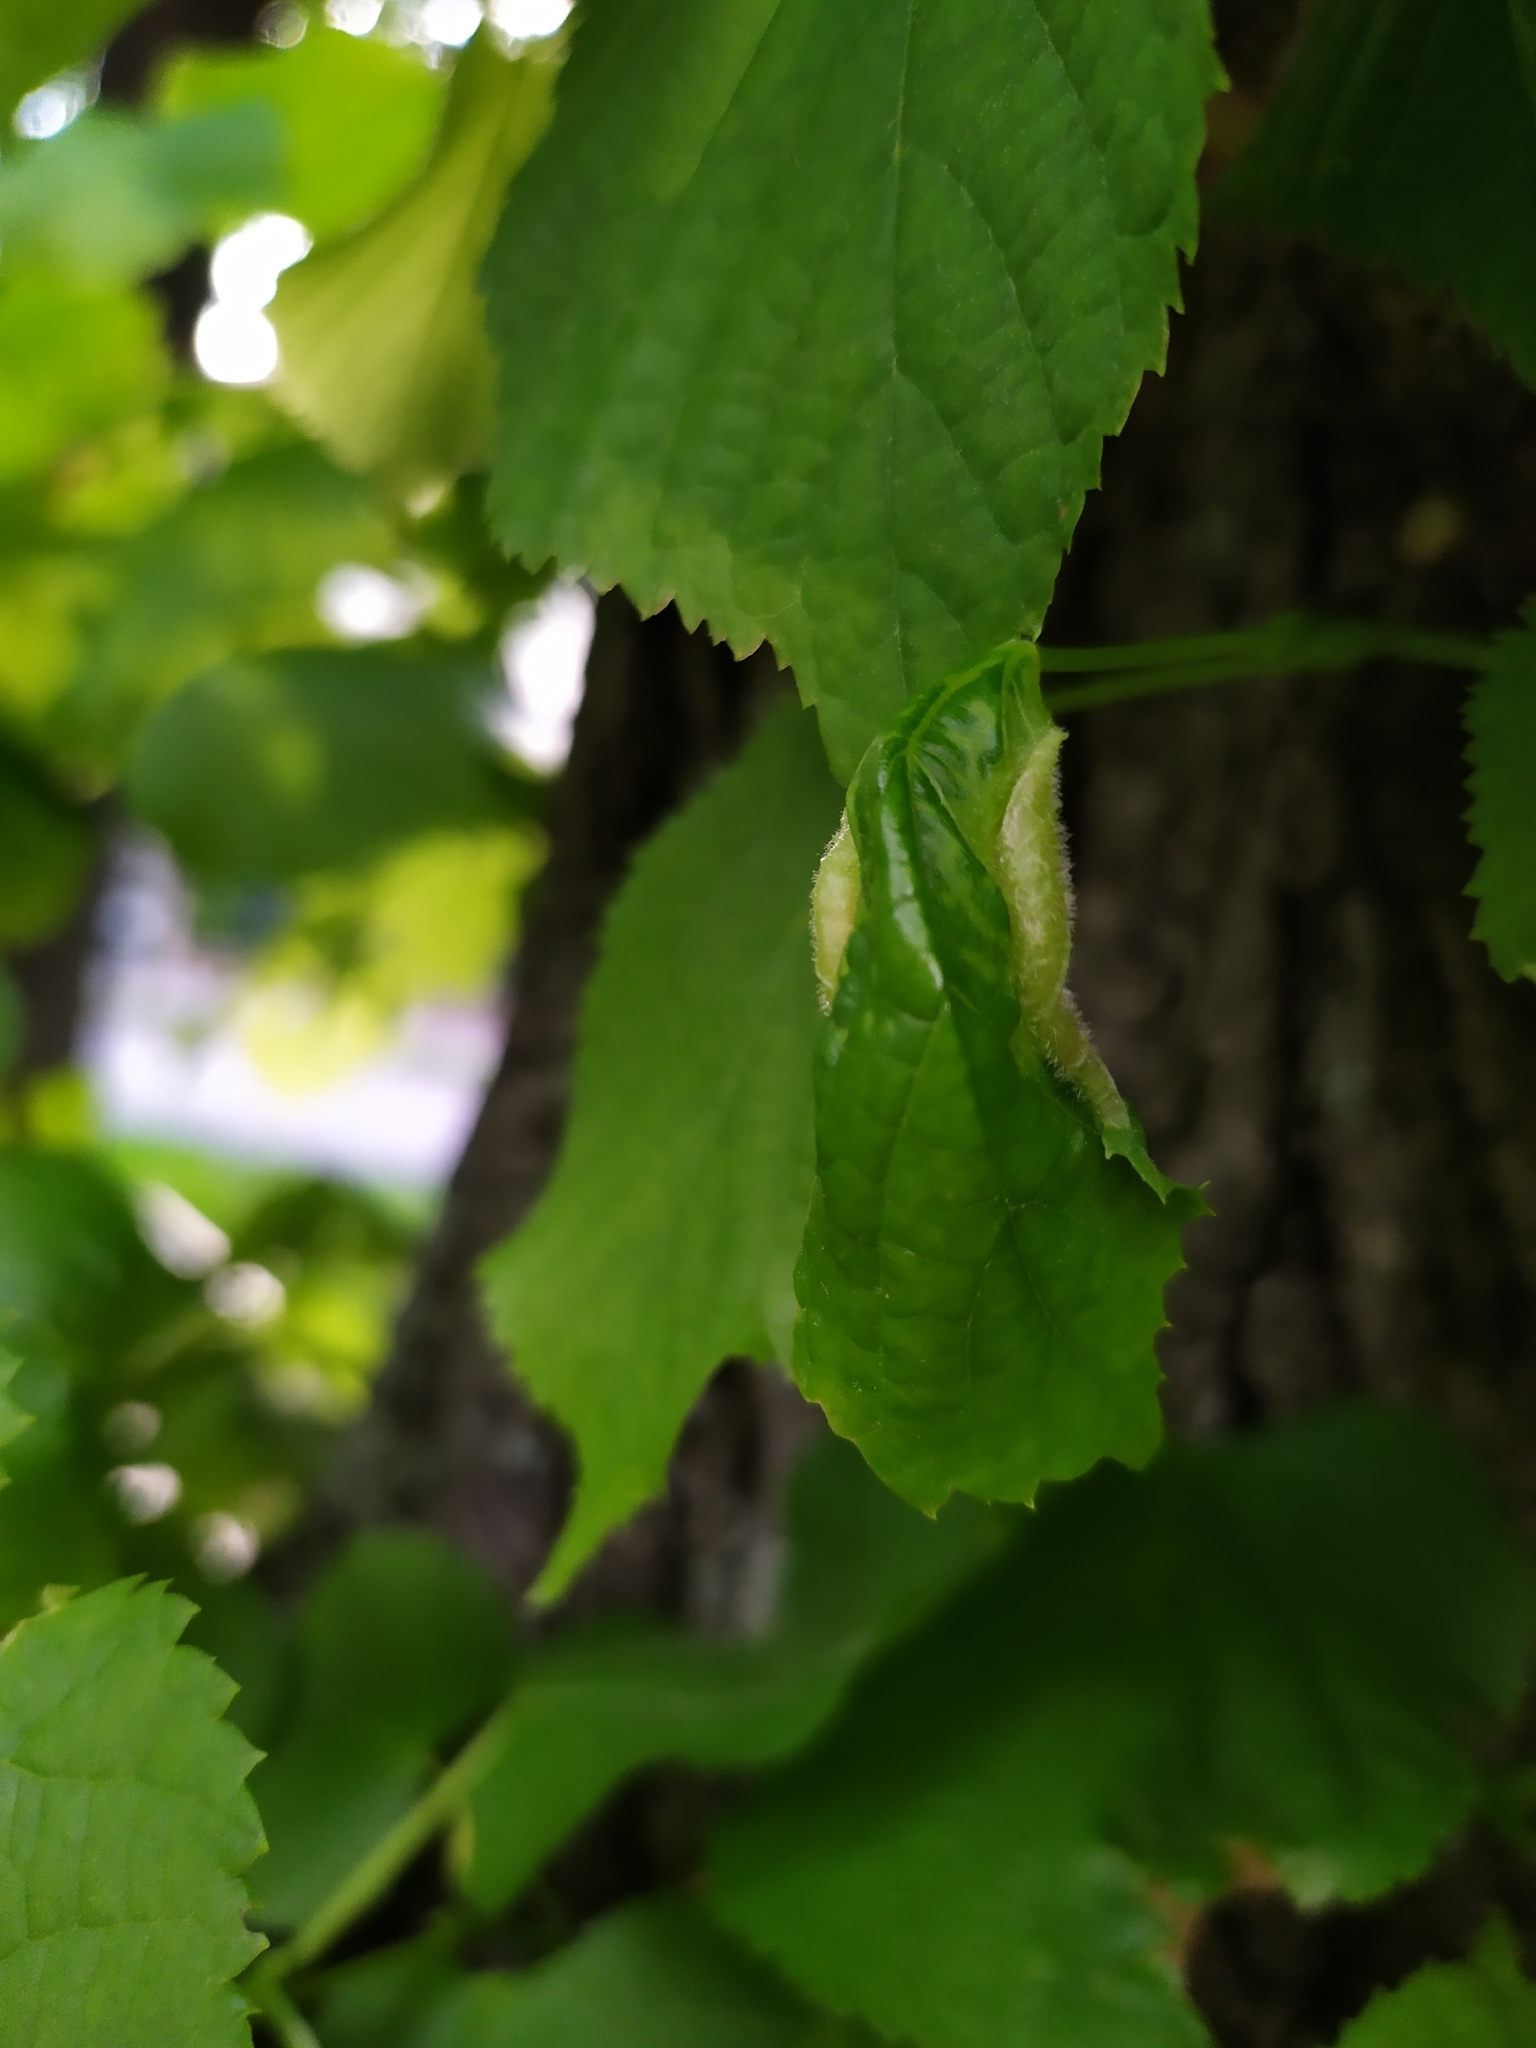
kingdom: Animalia
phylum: Arthropoda
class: Insecta
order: Diptera
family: Cecidomyiidae
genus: Dasineura
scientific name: Dasineura tiliae
